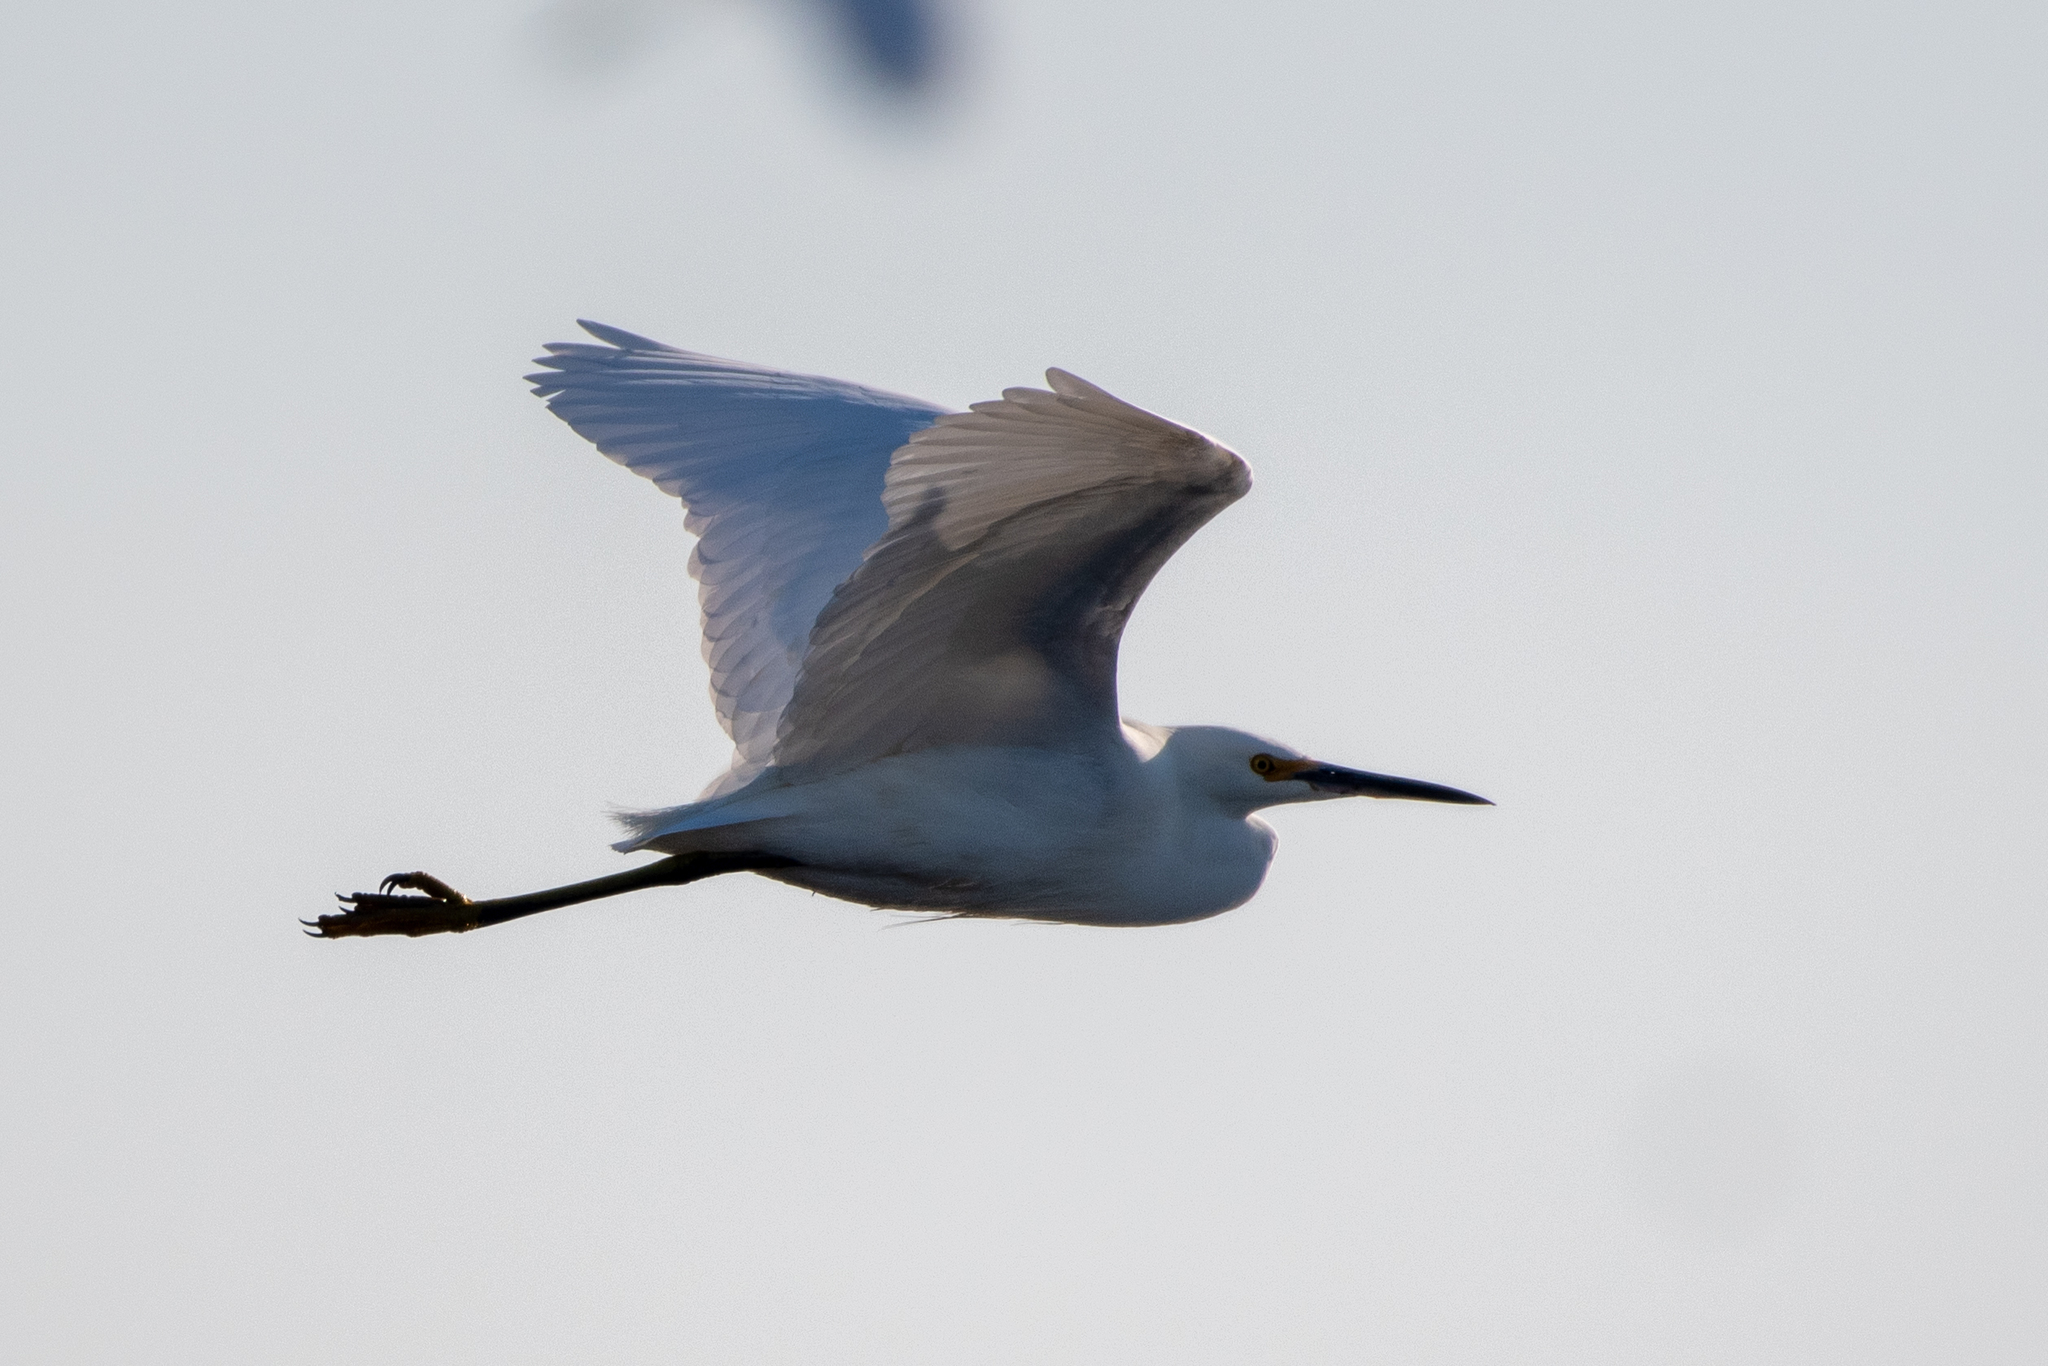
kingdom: Animalia
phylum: Chordata
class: Aves
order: Pelecaniformes
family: Ardeidae
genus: Egretta
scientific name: Egretta thula
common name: Snowy egret
